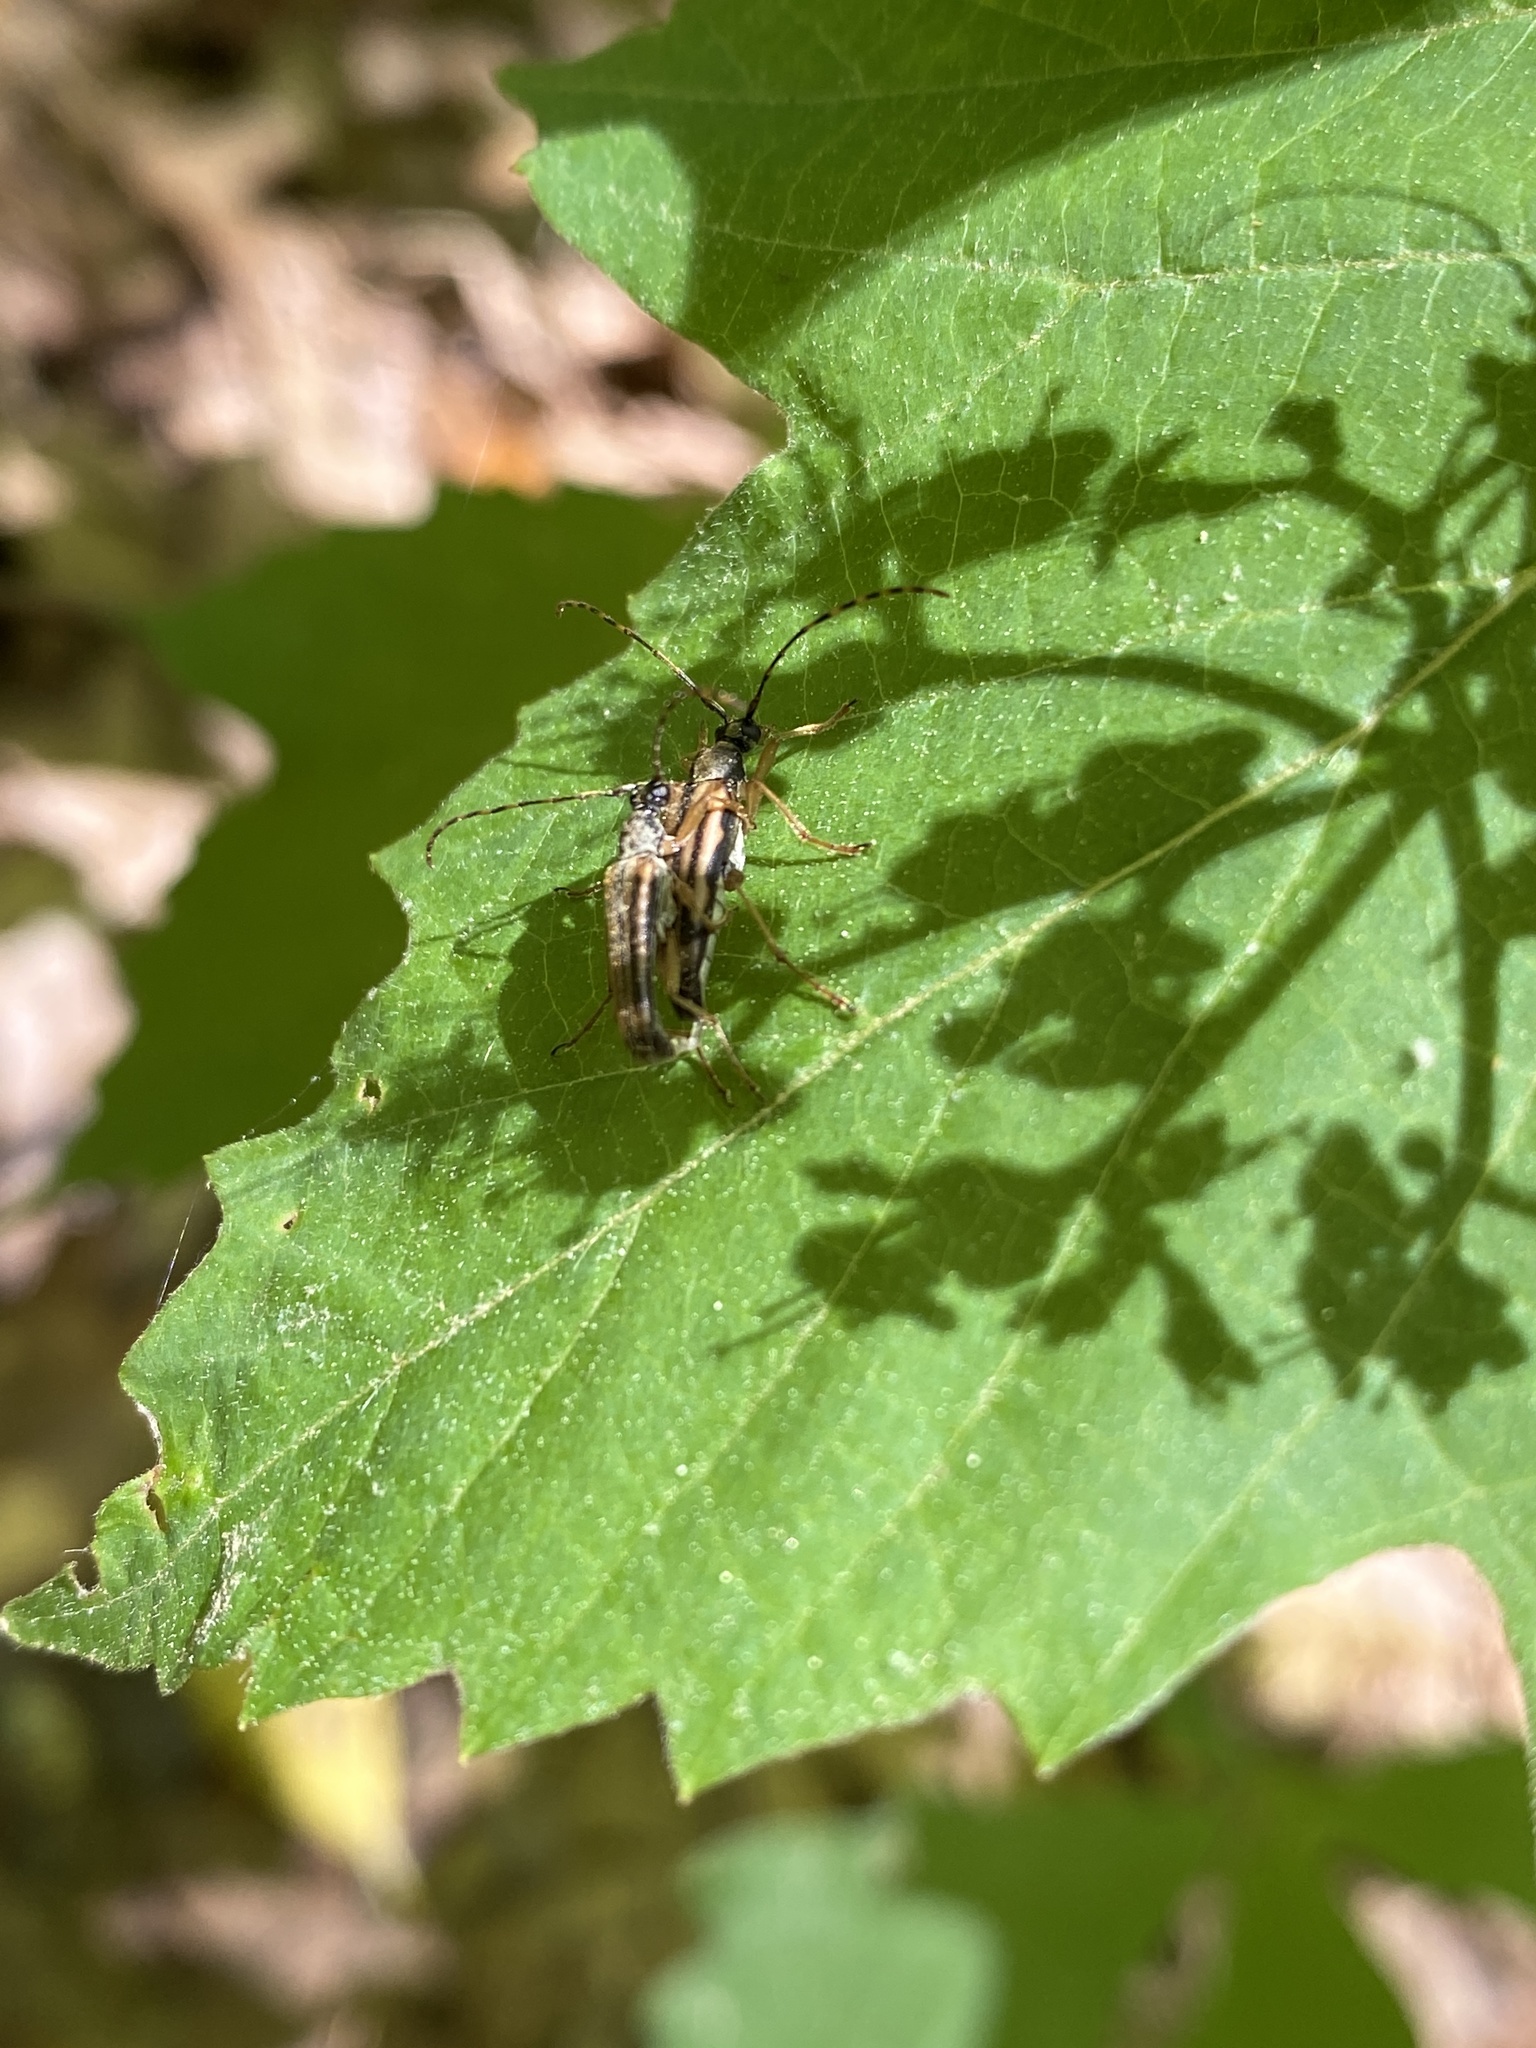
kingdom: Animalia
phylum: Arthropoda
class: Insecta
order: Coleoptera
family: Cerambycidae
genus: Analeptura
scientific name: Analeptura lineola
